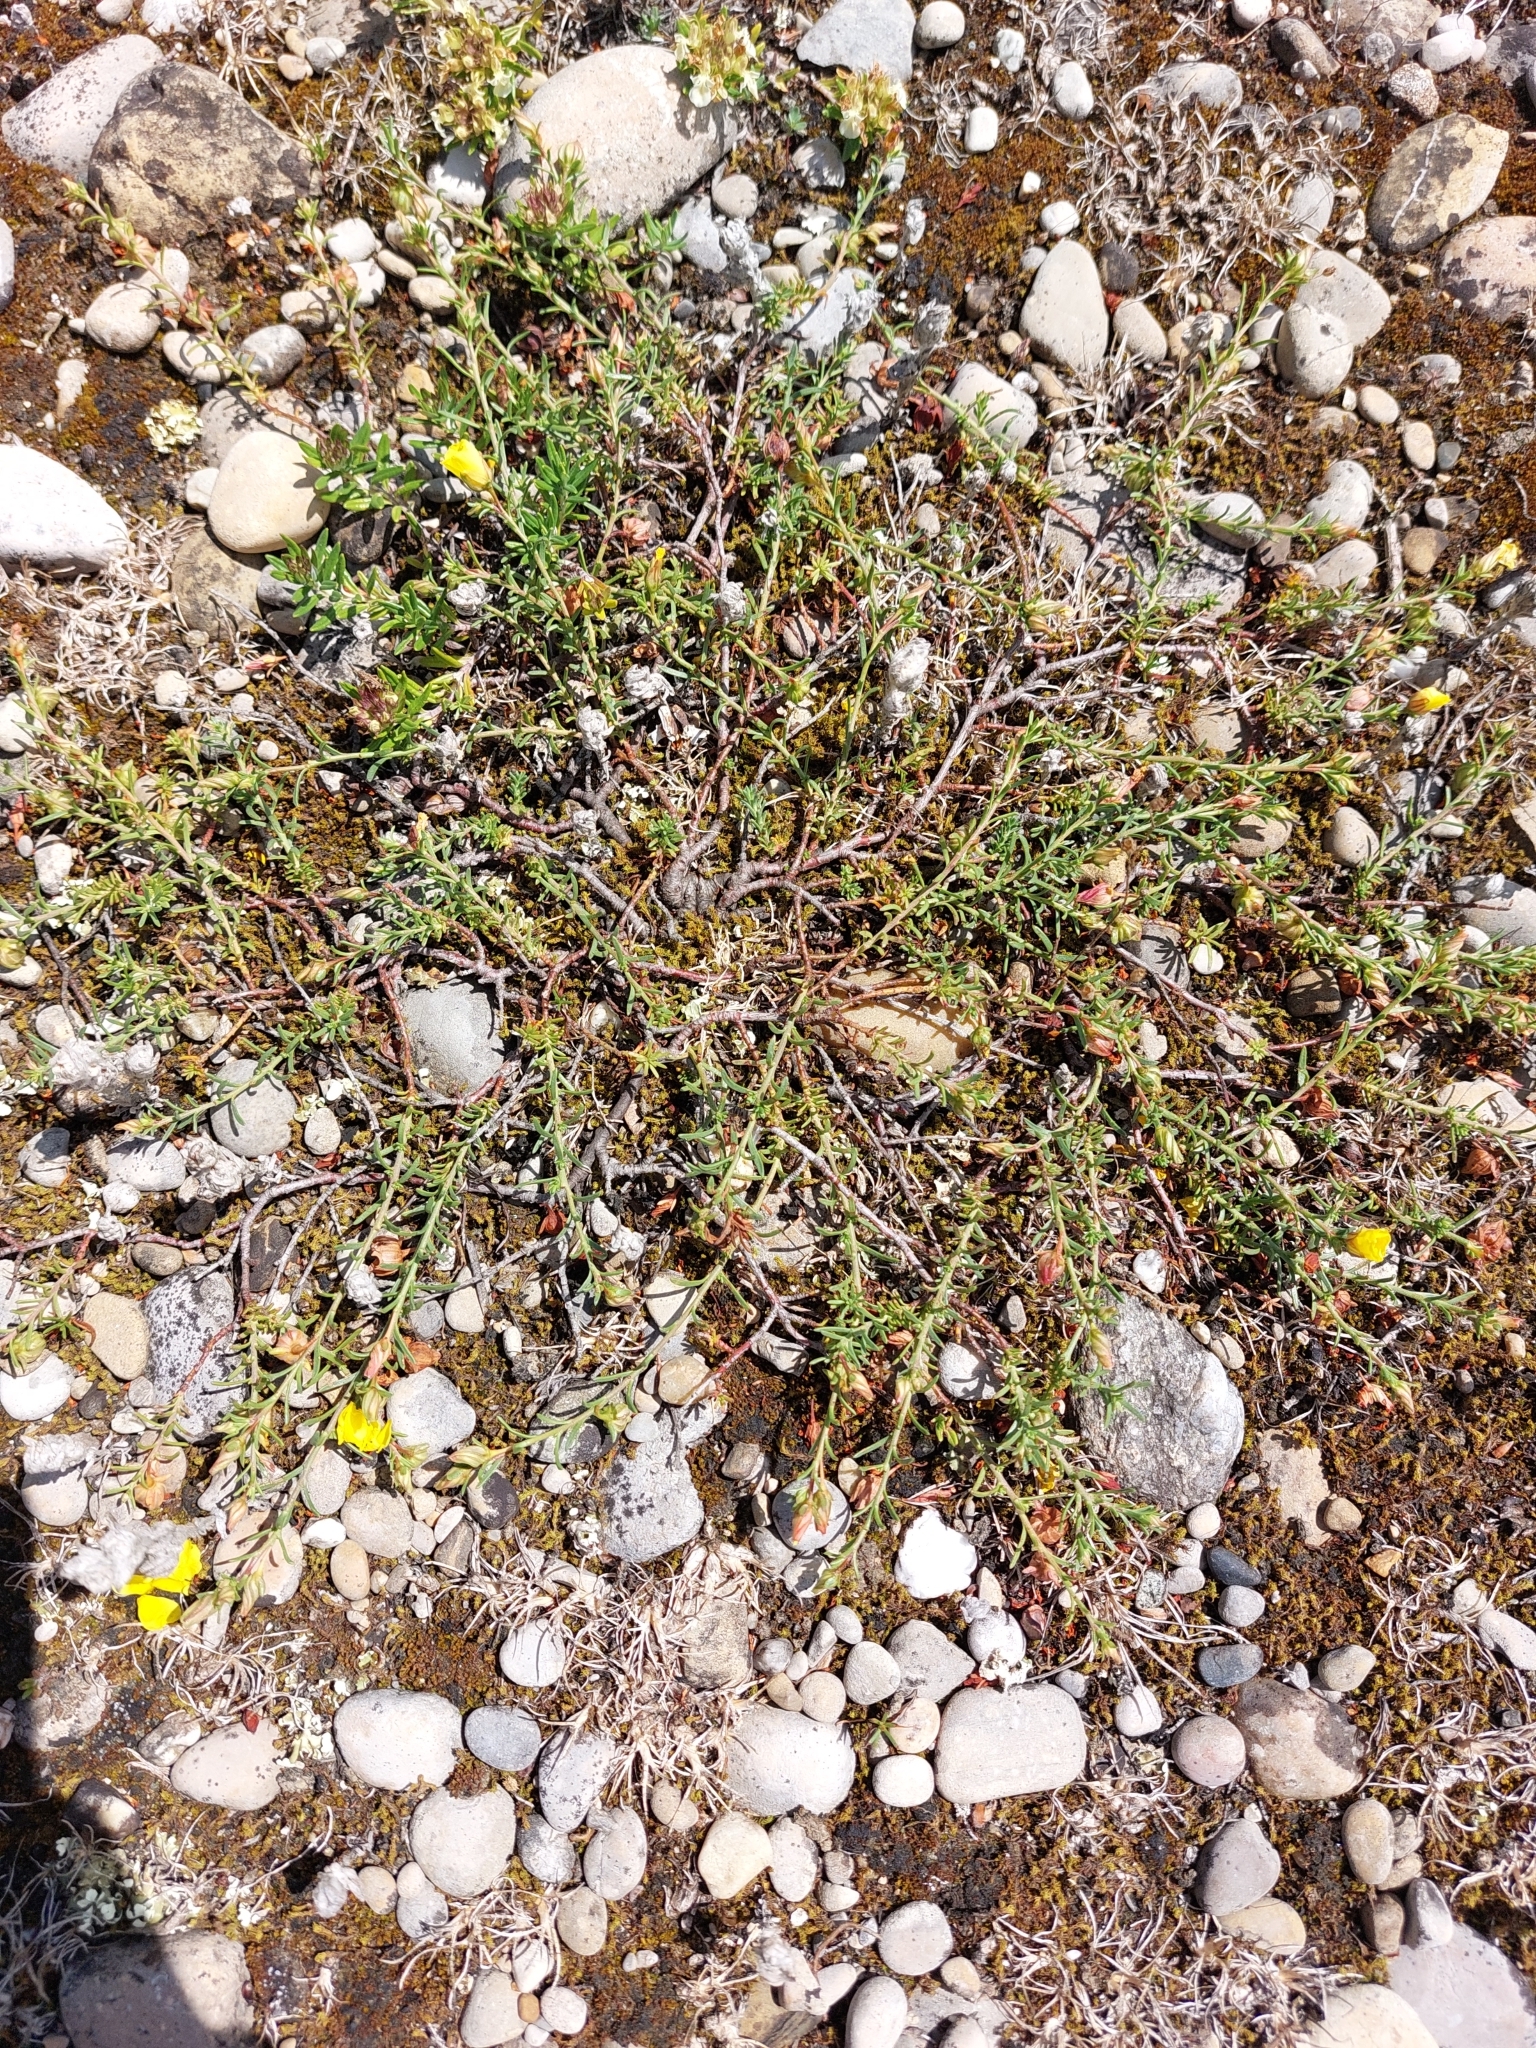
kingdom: Plantae
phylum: Tracheophyta
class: Magnoliopsida
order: Malvales
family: Cistaceae
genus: Fumana
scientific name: Fumana procumbens
